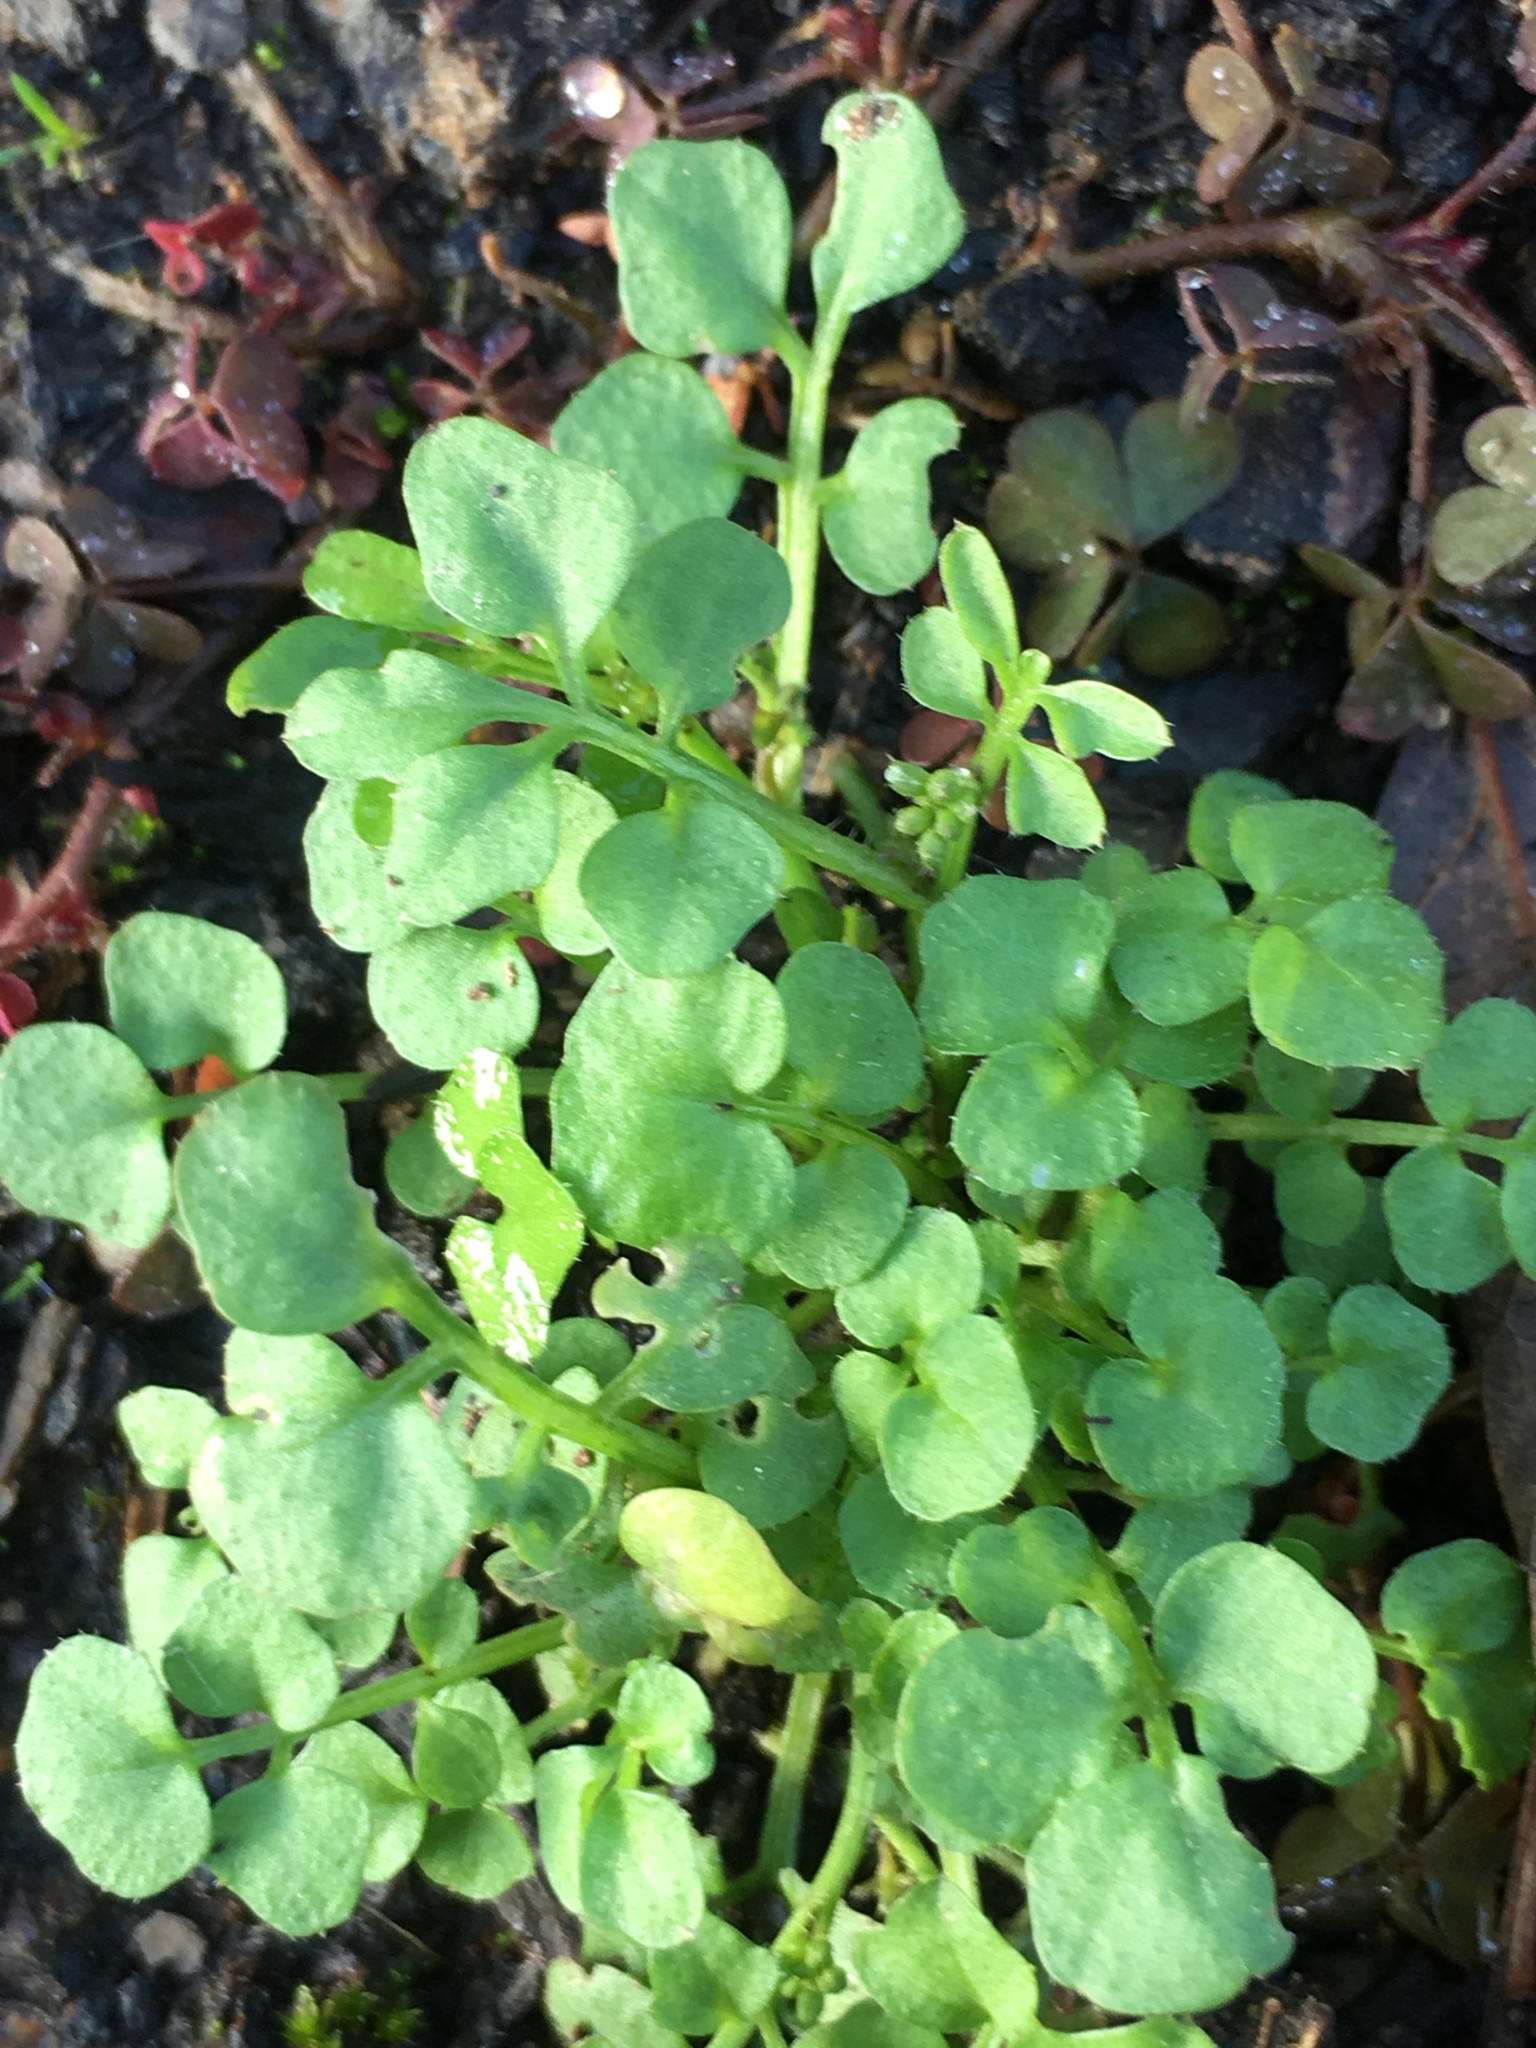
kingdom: Plantae
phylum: Tracheophyta
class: Magnoliopsida
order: Brassicales
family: Brassicaceae
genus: Cardamine
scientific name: Cardamine hirsuta
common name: Hairy bittercress
